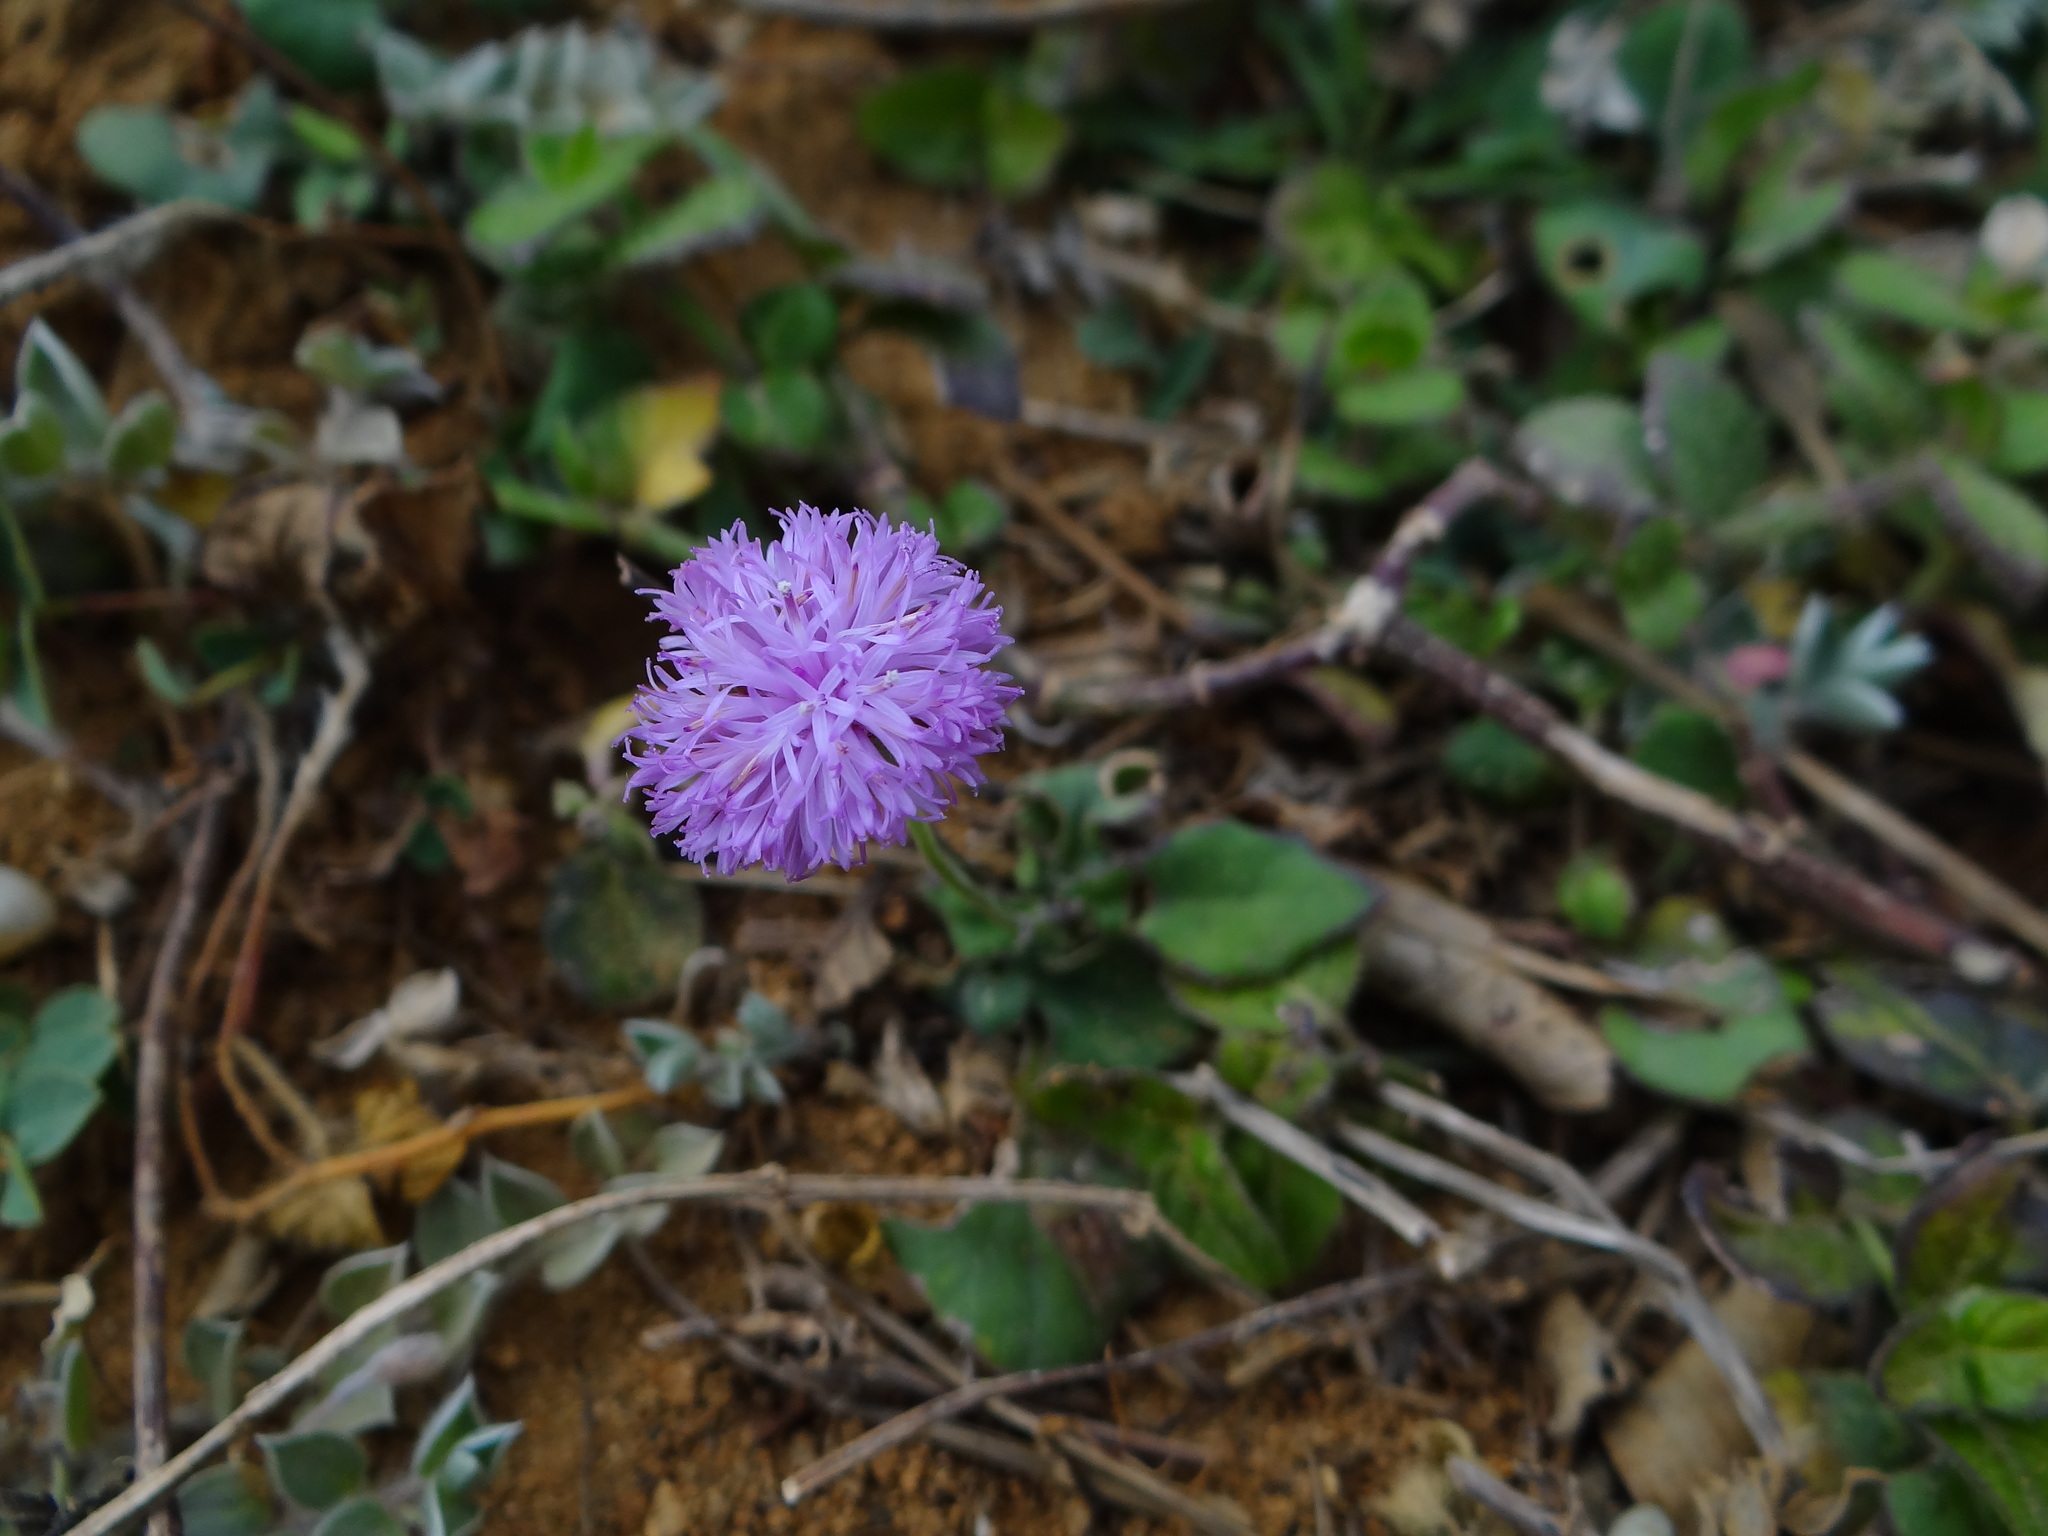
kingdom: Plantae
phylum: Tracheophyta
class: Magnoliopsida
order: Asterales
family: Asteraceae
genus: Emilia
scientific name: Emilia javanica
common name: Tassel-flower
